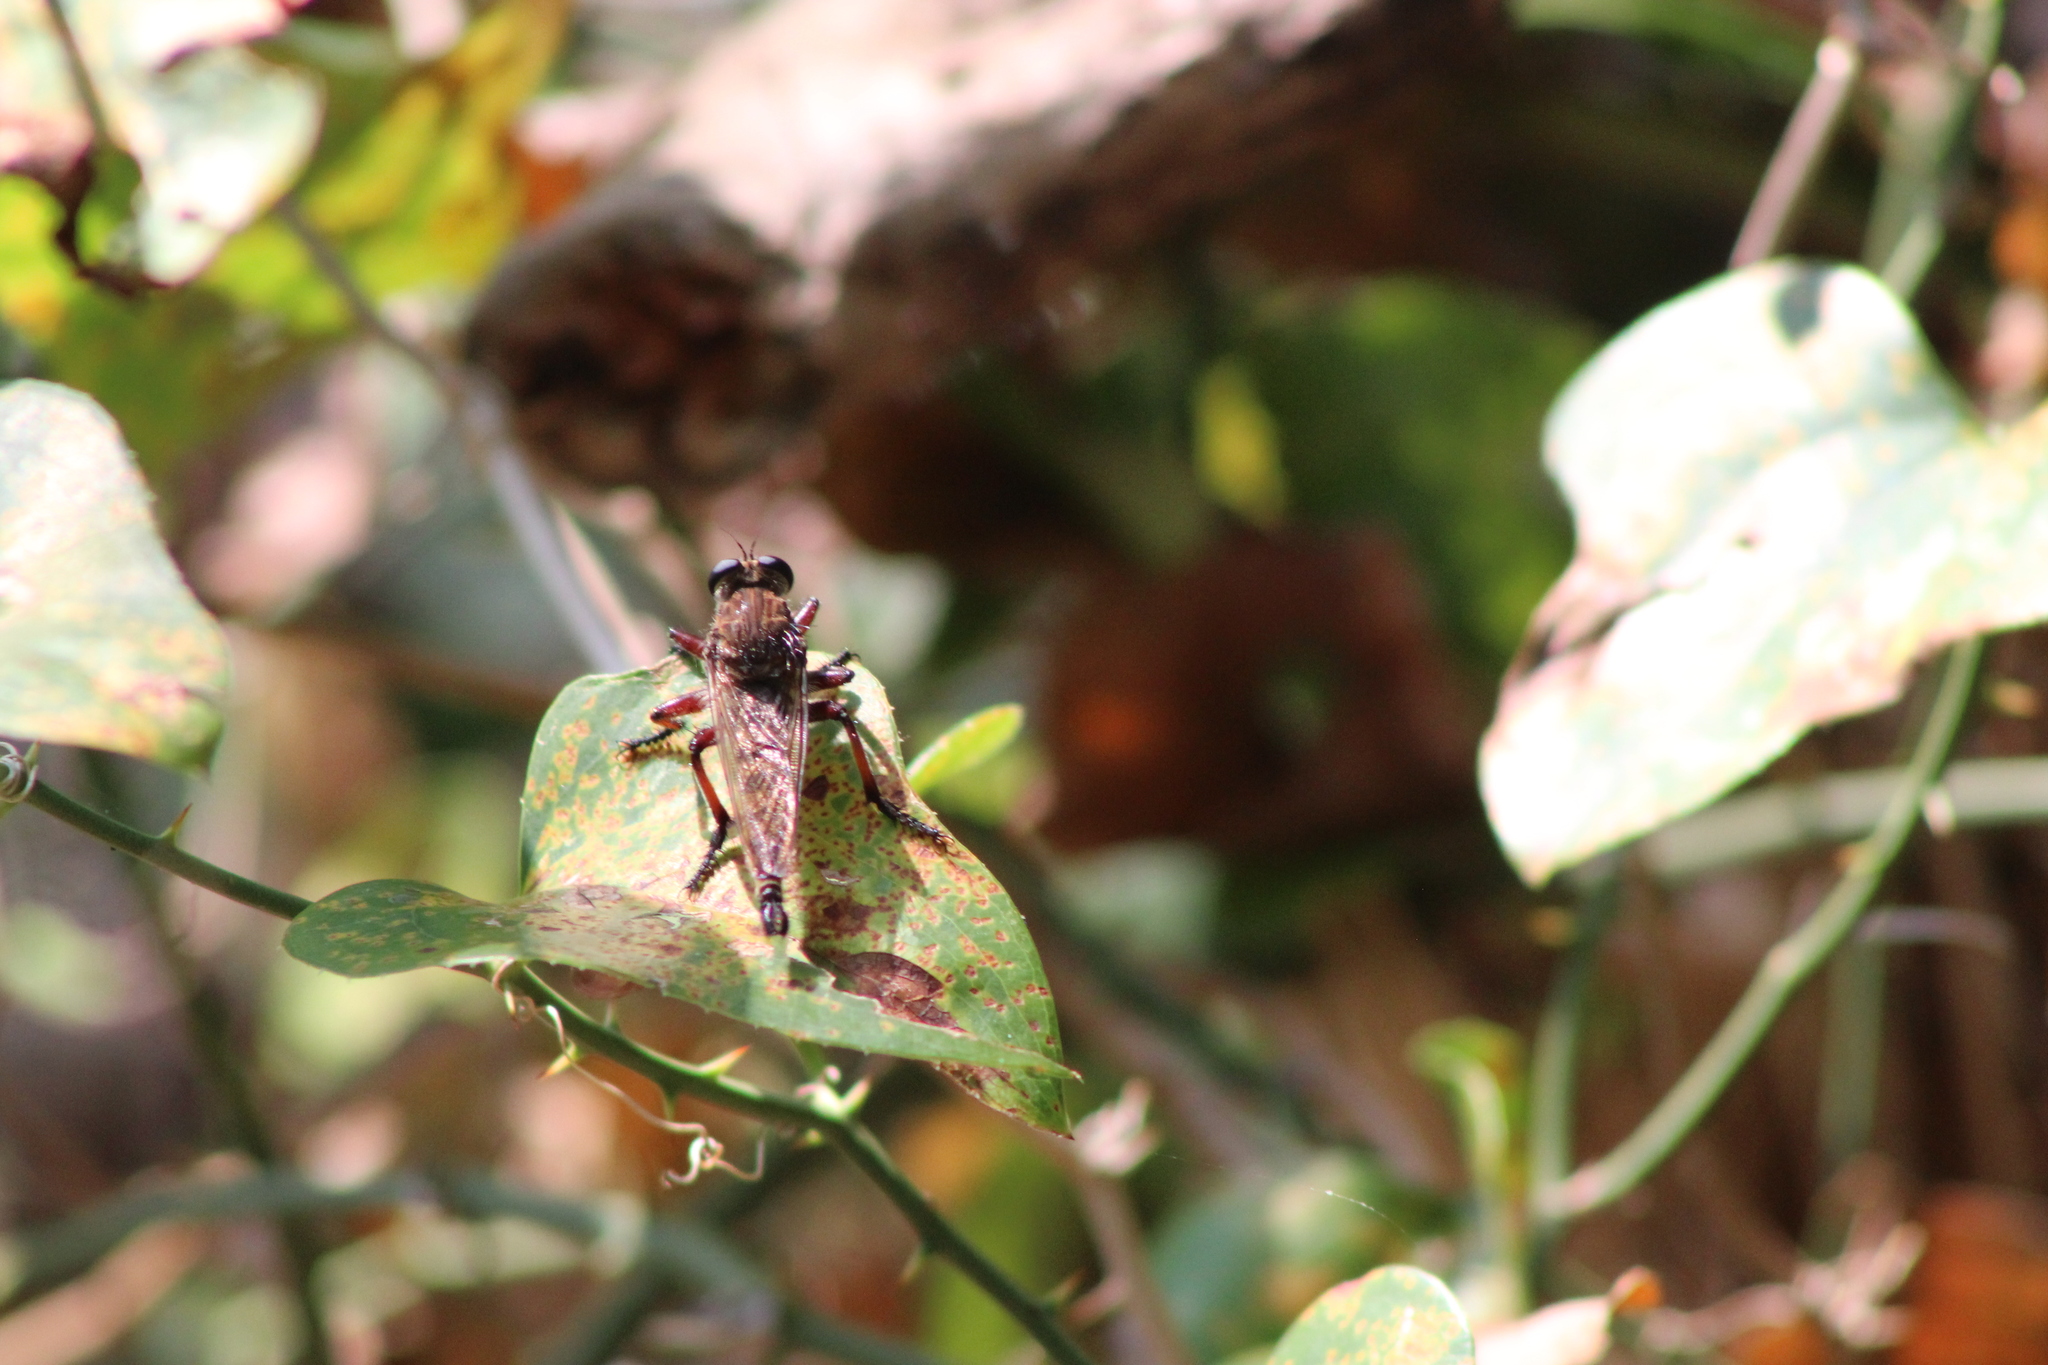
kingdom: Animalia
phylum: Arthropoda
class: Insecta
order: Diptera
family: Asilidae
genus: Promachus
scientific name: Promachus hinei
